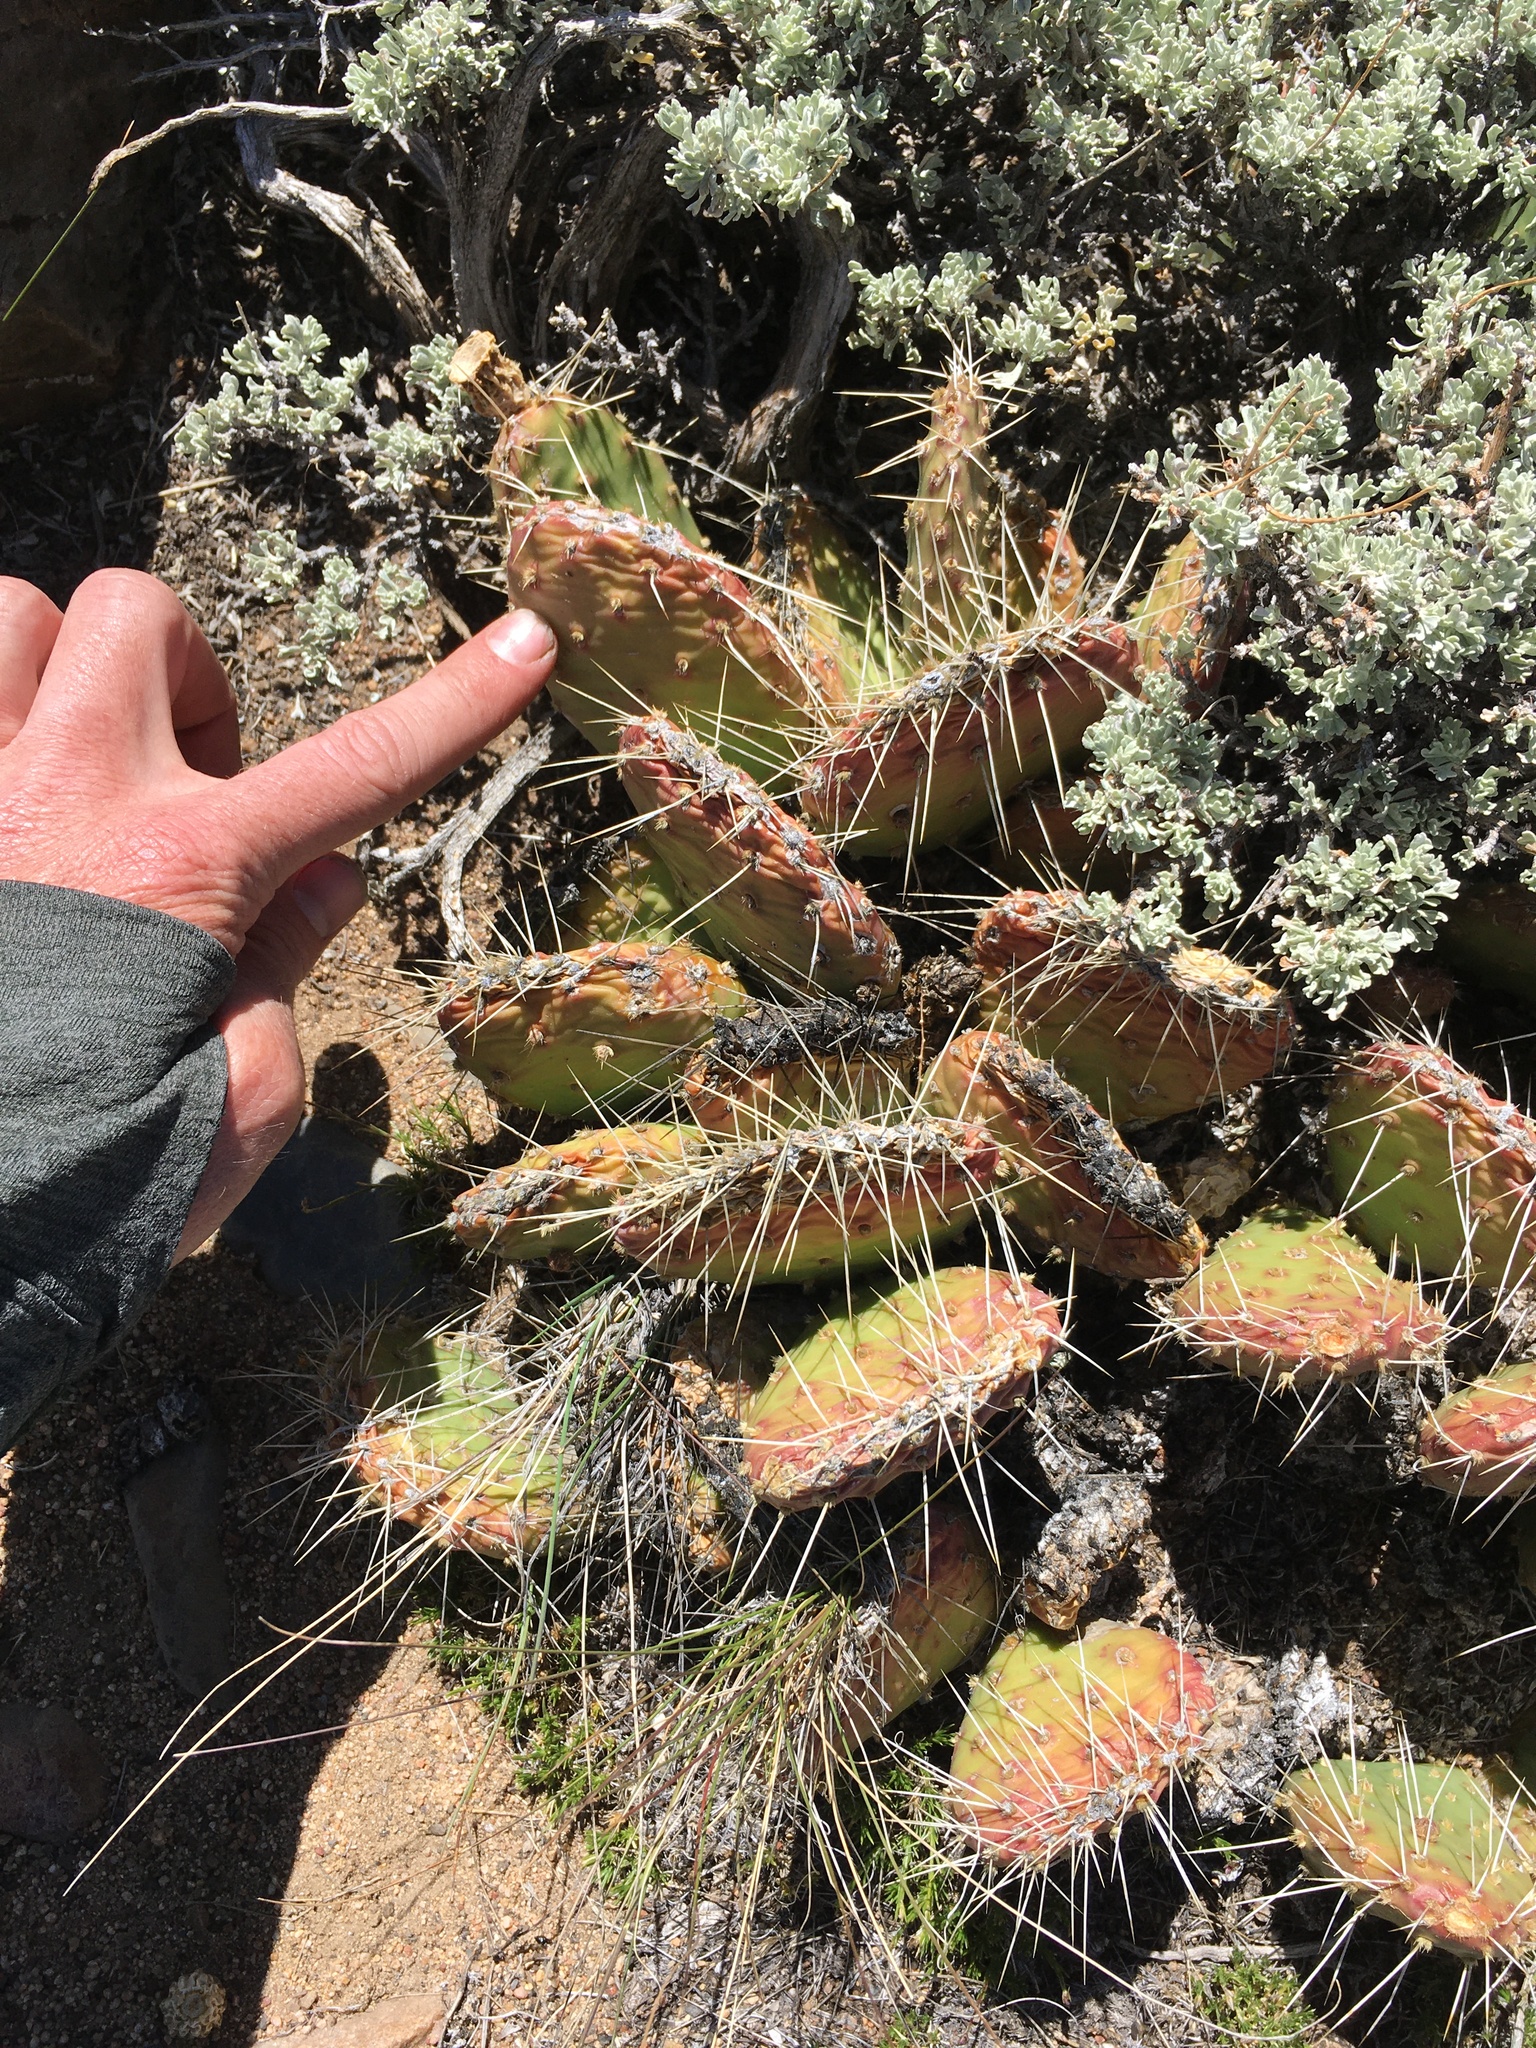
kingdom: Plantae
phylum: Tracheophyta
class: Magnoliopsida
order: Caryophyllales
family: Cactaceae
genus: Opuntia
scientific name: Opuntia polyacantha
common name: Plains prickly-pear
